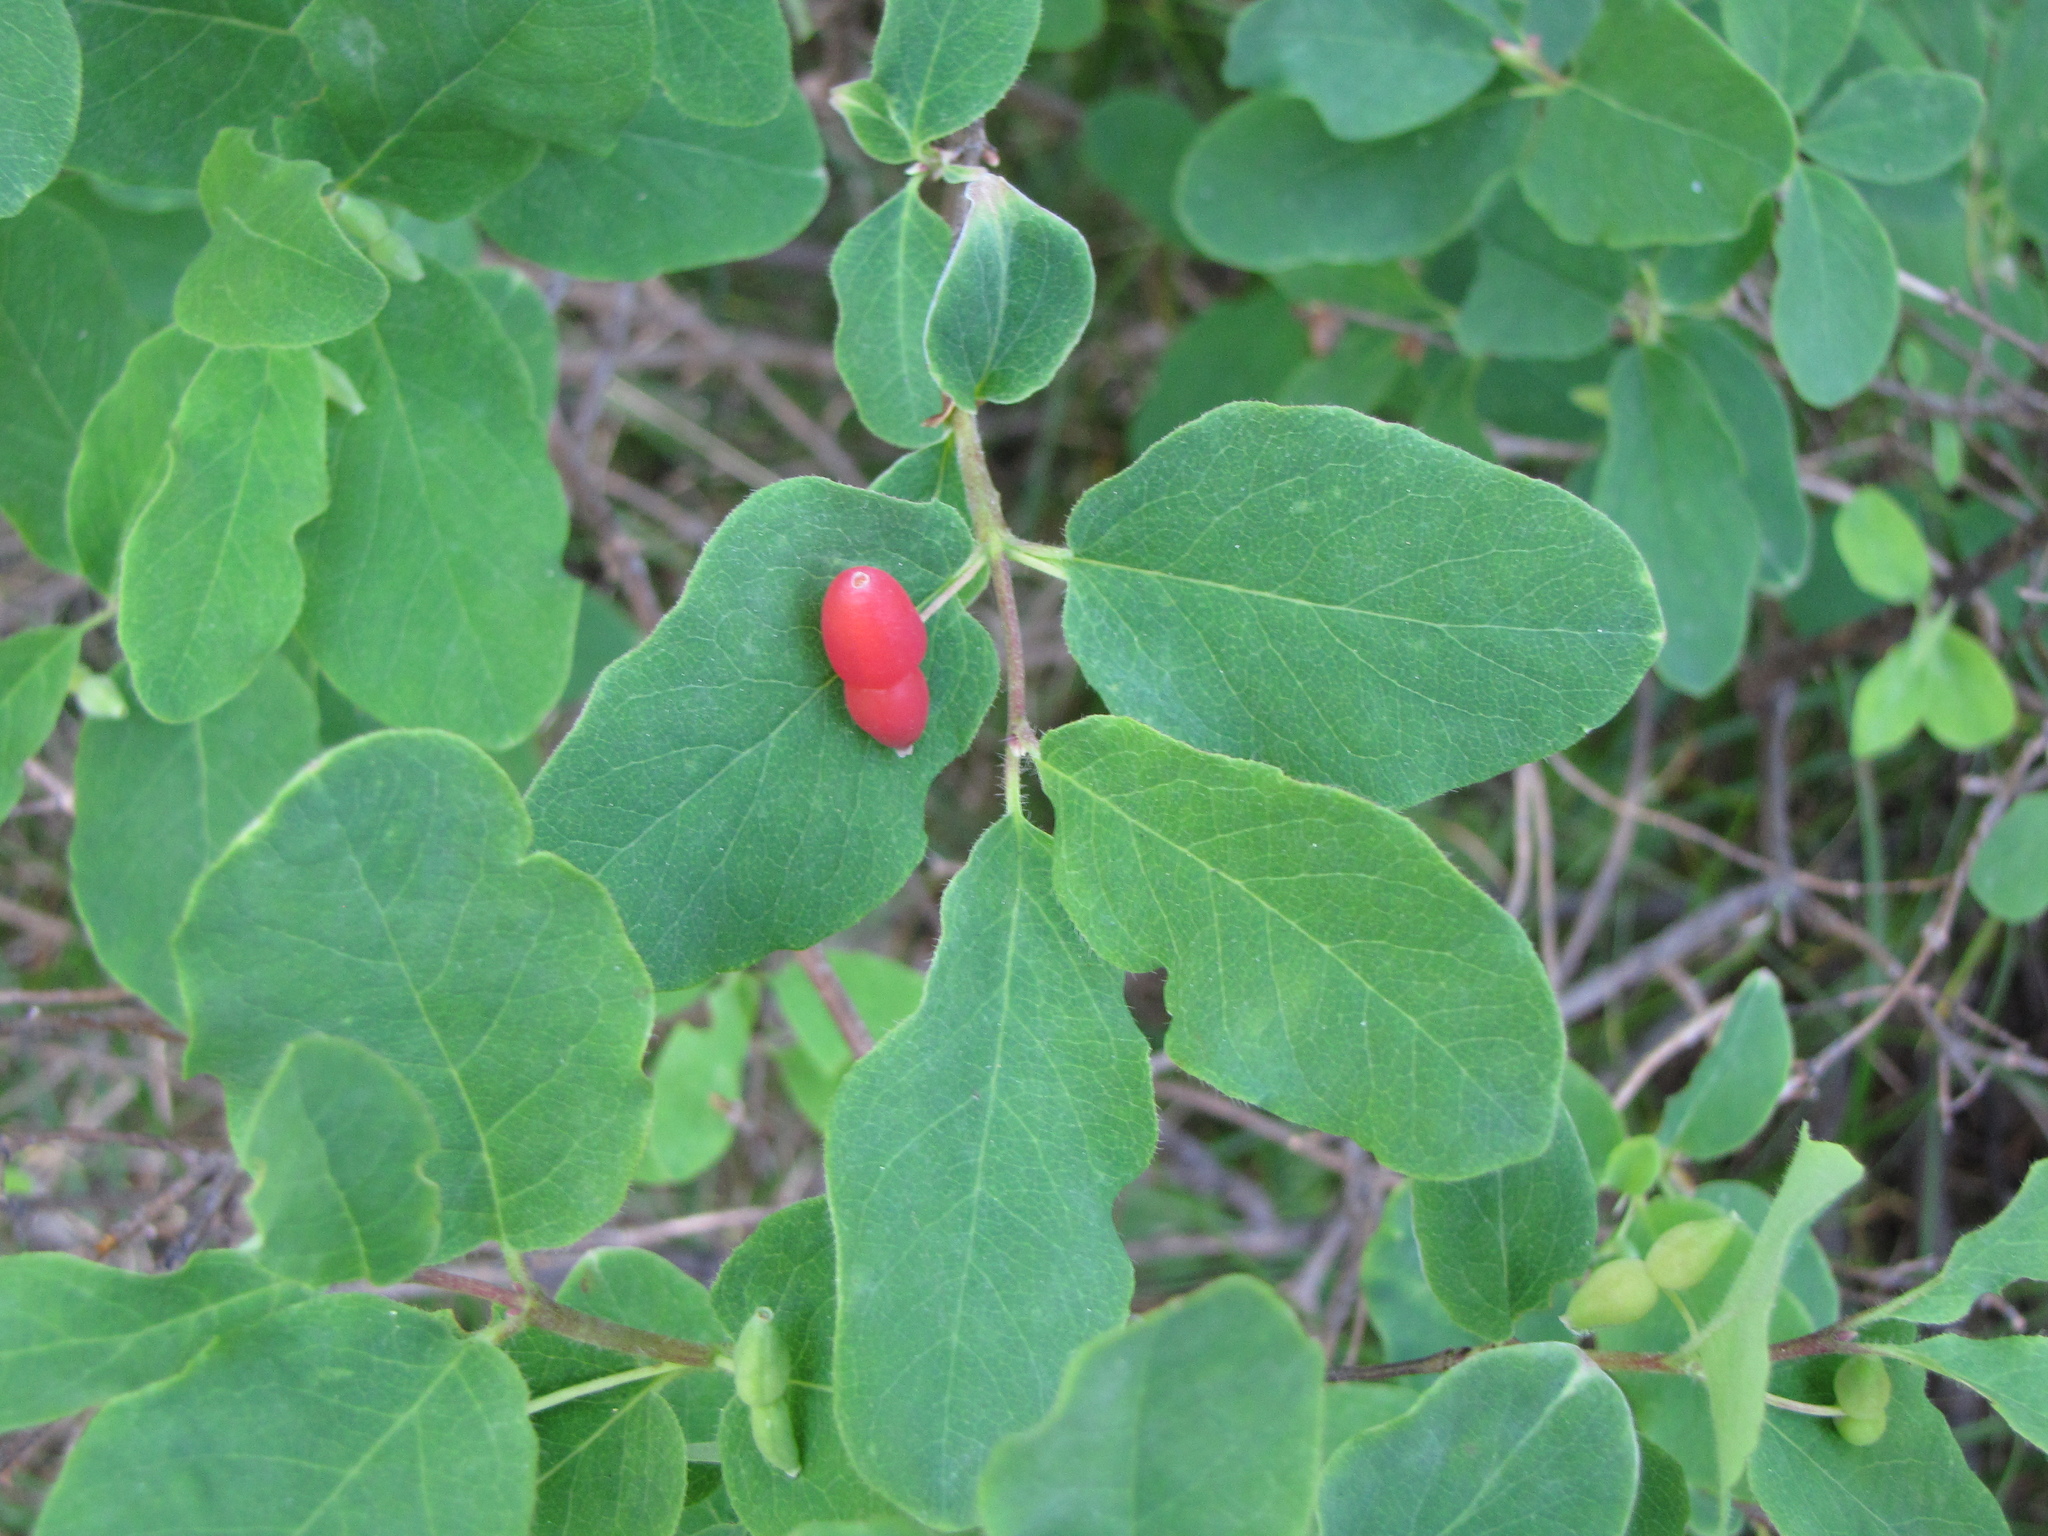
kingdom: Plantae
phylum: Tracheophyta
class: Magnoliopsida
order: Dipsacales
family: Caprifoliaceae
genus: Lonicera
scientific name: Lonicera utahensis
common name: Utah honeysuckle
